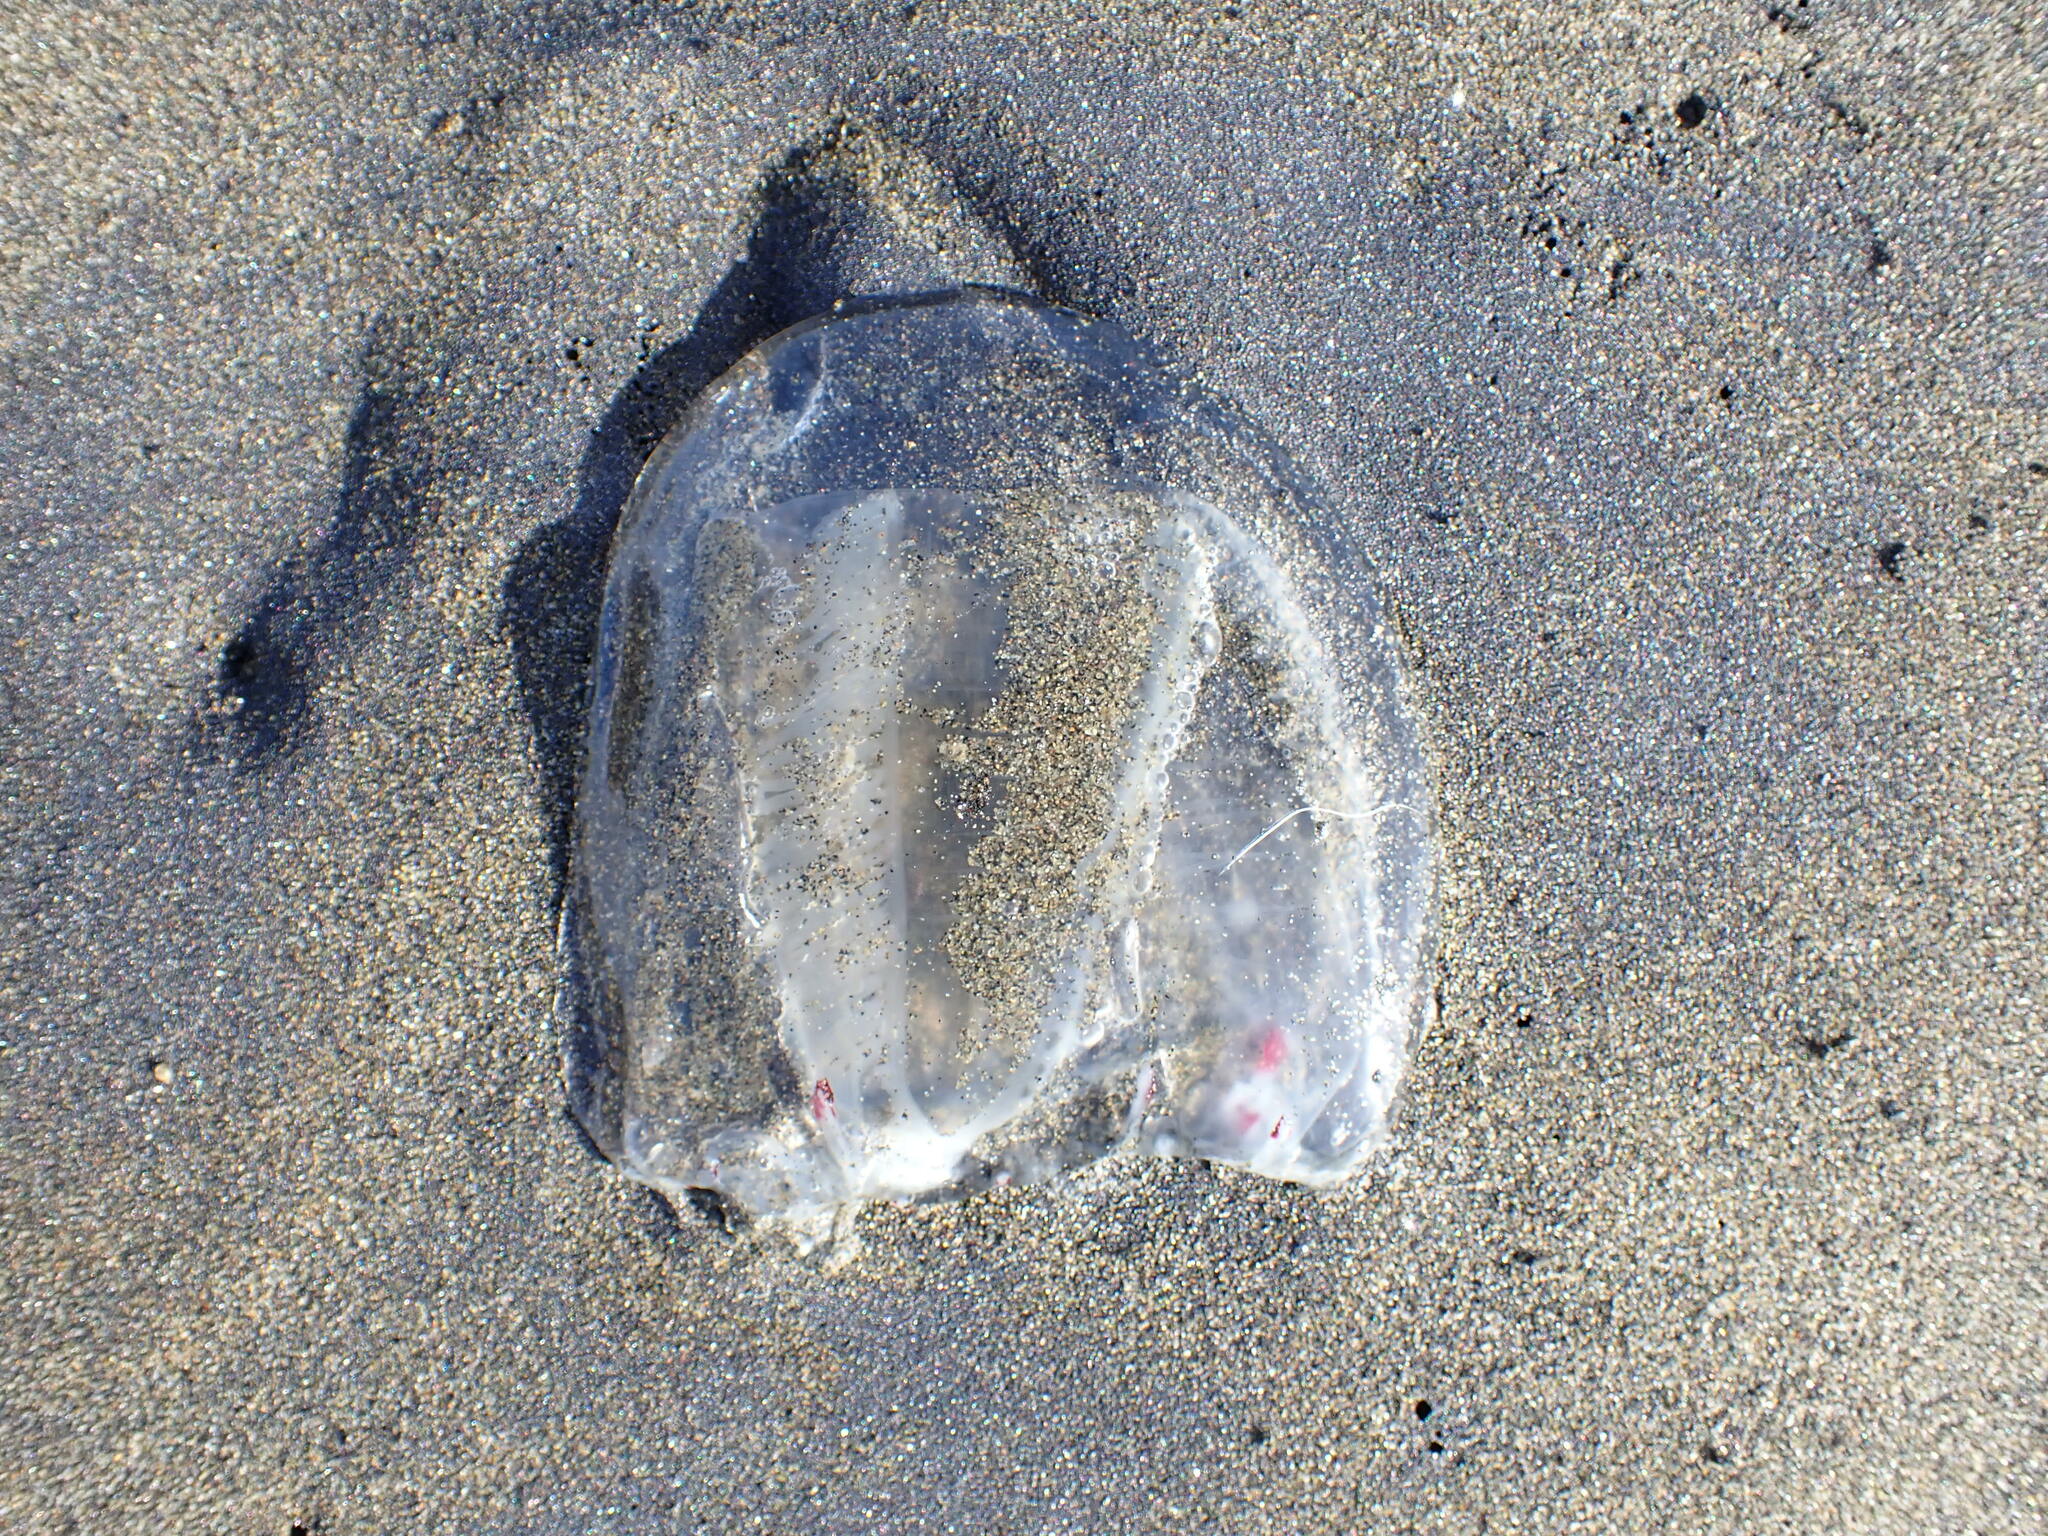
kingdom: Animalia
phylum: Cnidaria
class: Hydrozoa
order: Anthoathecata
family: Corynidae
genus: Scrippsia
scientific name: Scrippsia pacifica
